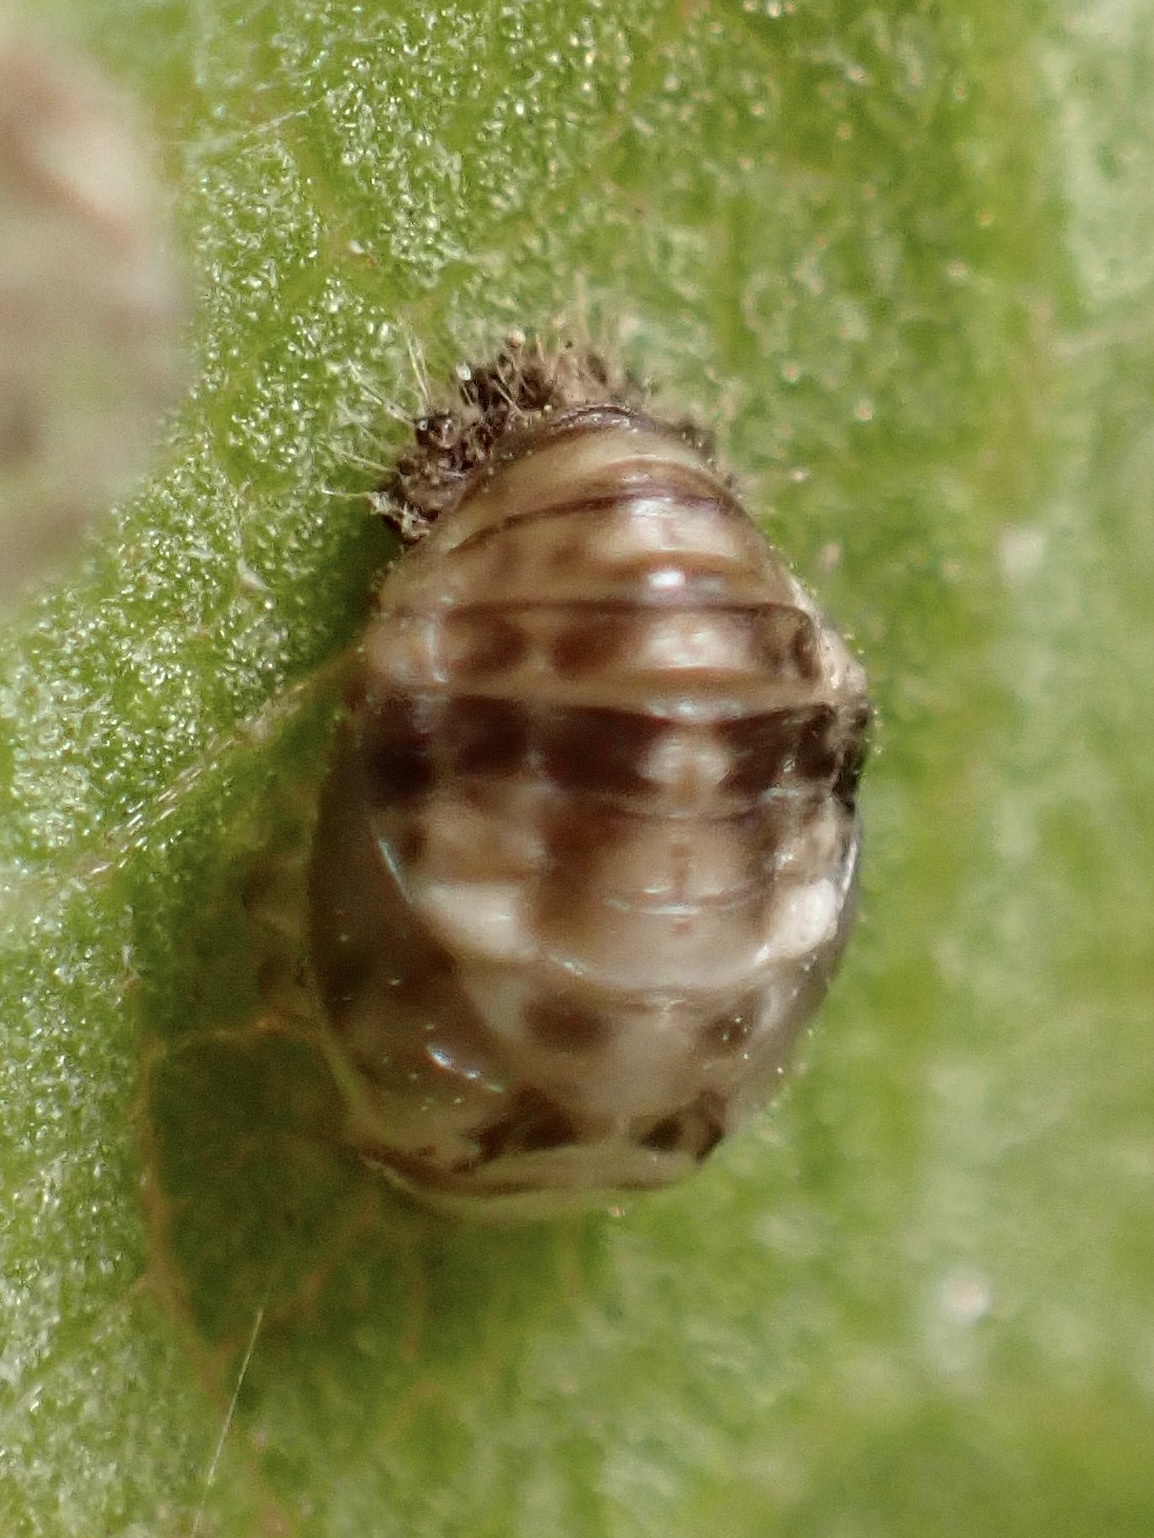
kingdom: Animalia
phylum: Arthropoda
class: Insecta
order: Coleoptera
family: Coccinellidae
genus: Psyllobora
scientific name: Psyllobora vigintimaculata
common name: Ladybird beetle
